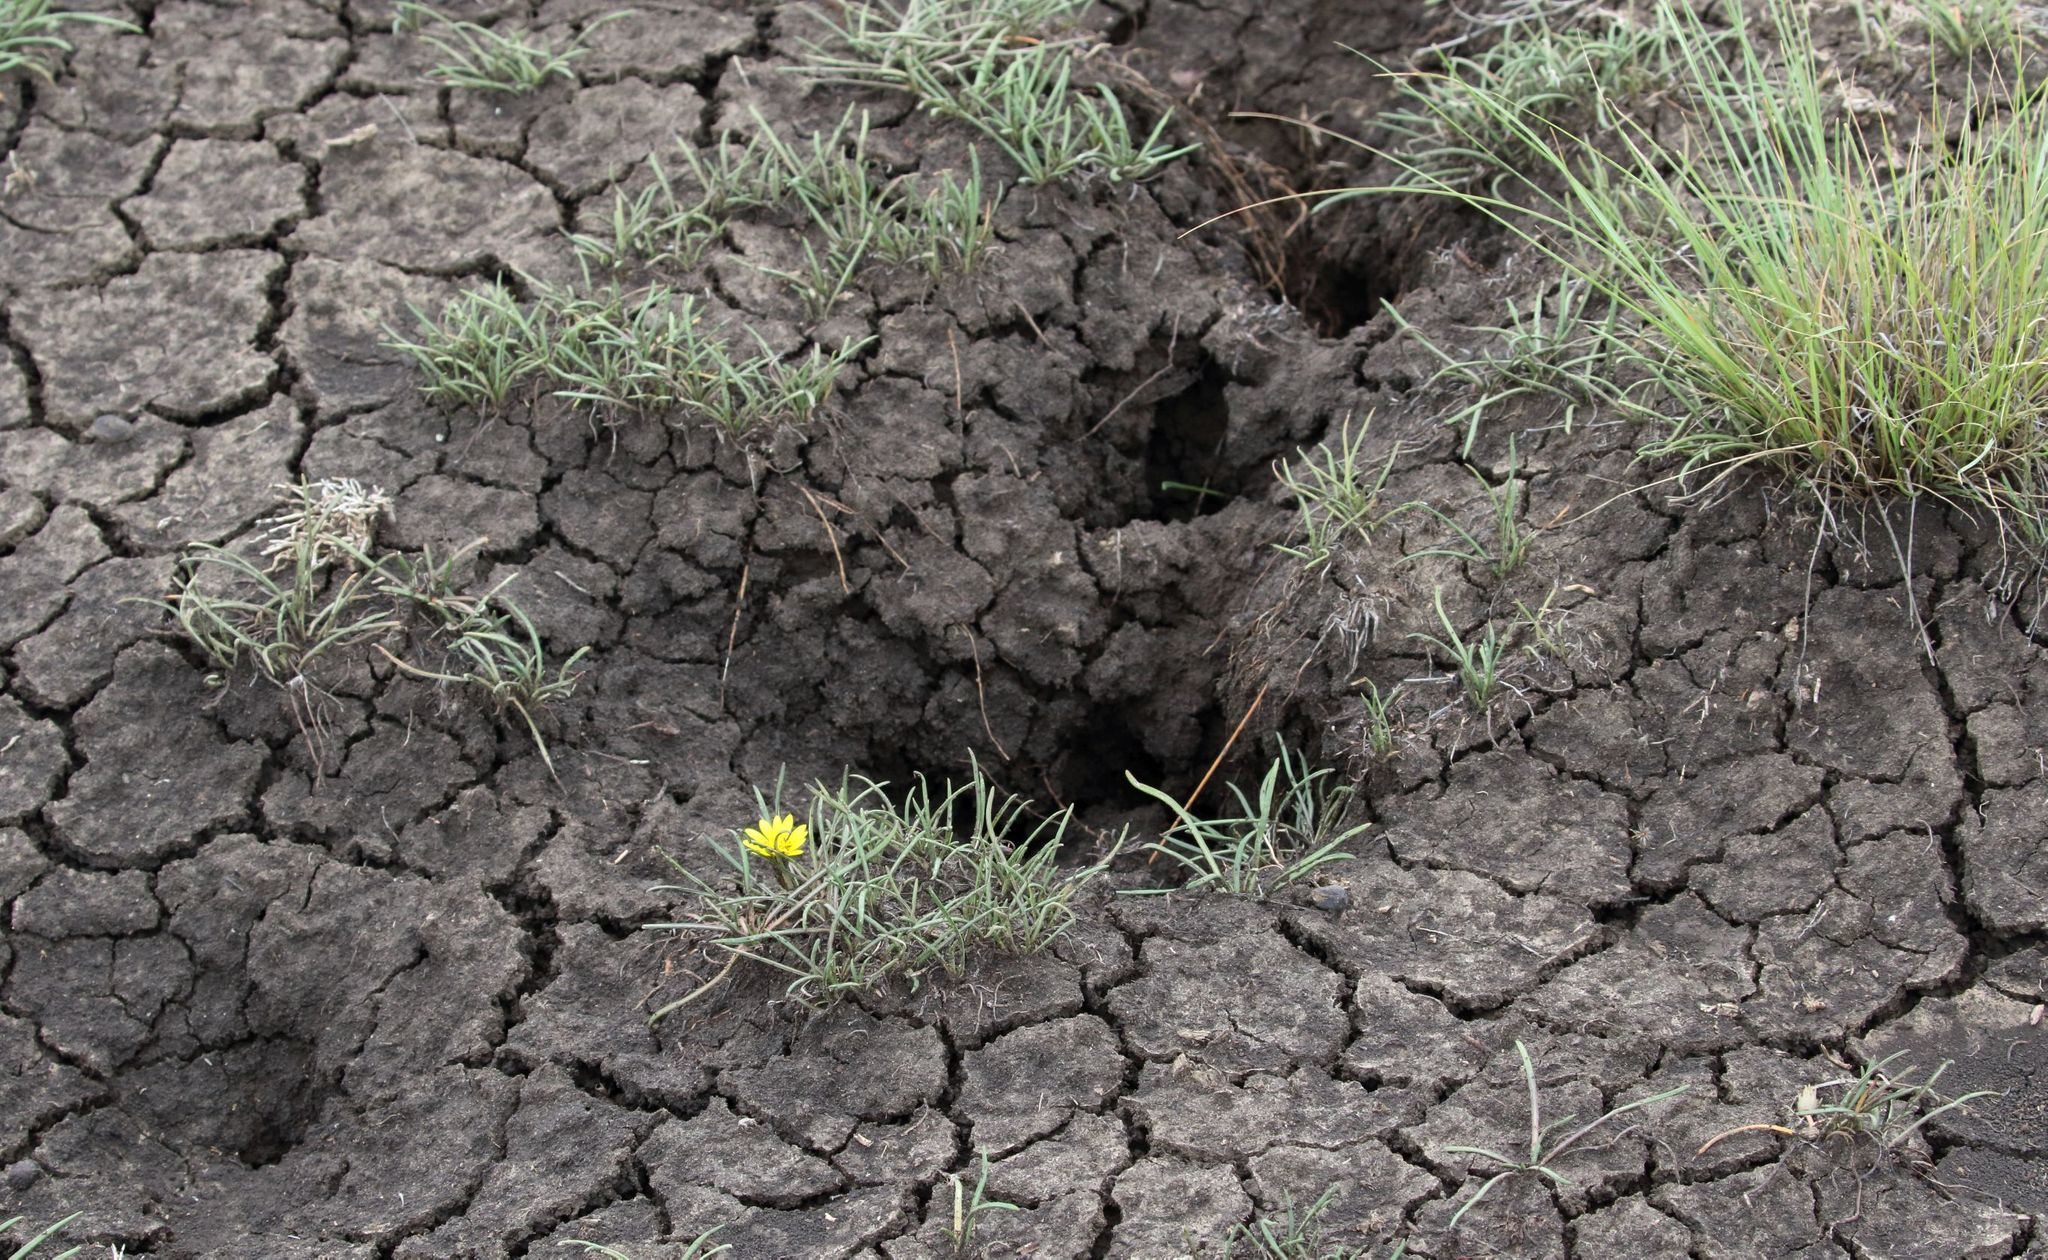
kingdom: Plantae
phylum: Tracheophyta
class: Magnoliopsida
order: Asterales
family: Asteraceae
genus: Gazania
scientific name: Gazania krebsiana
